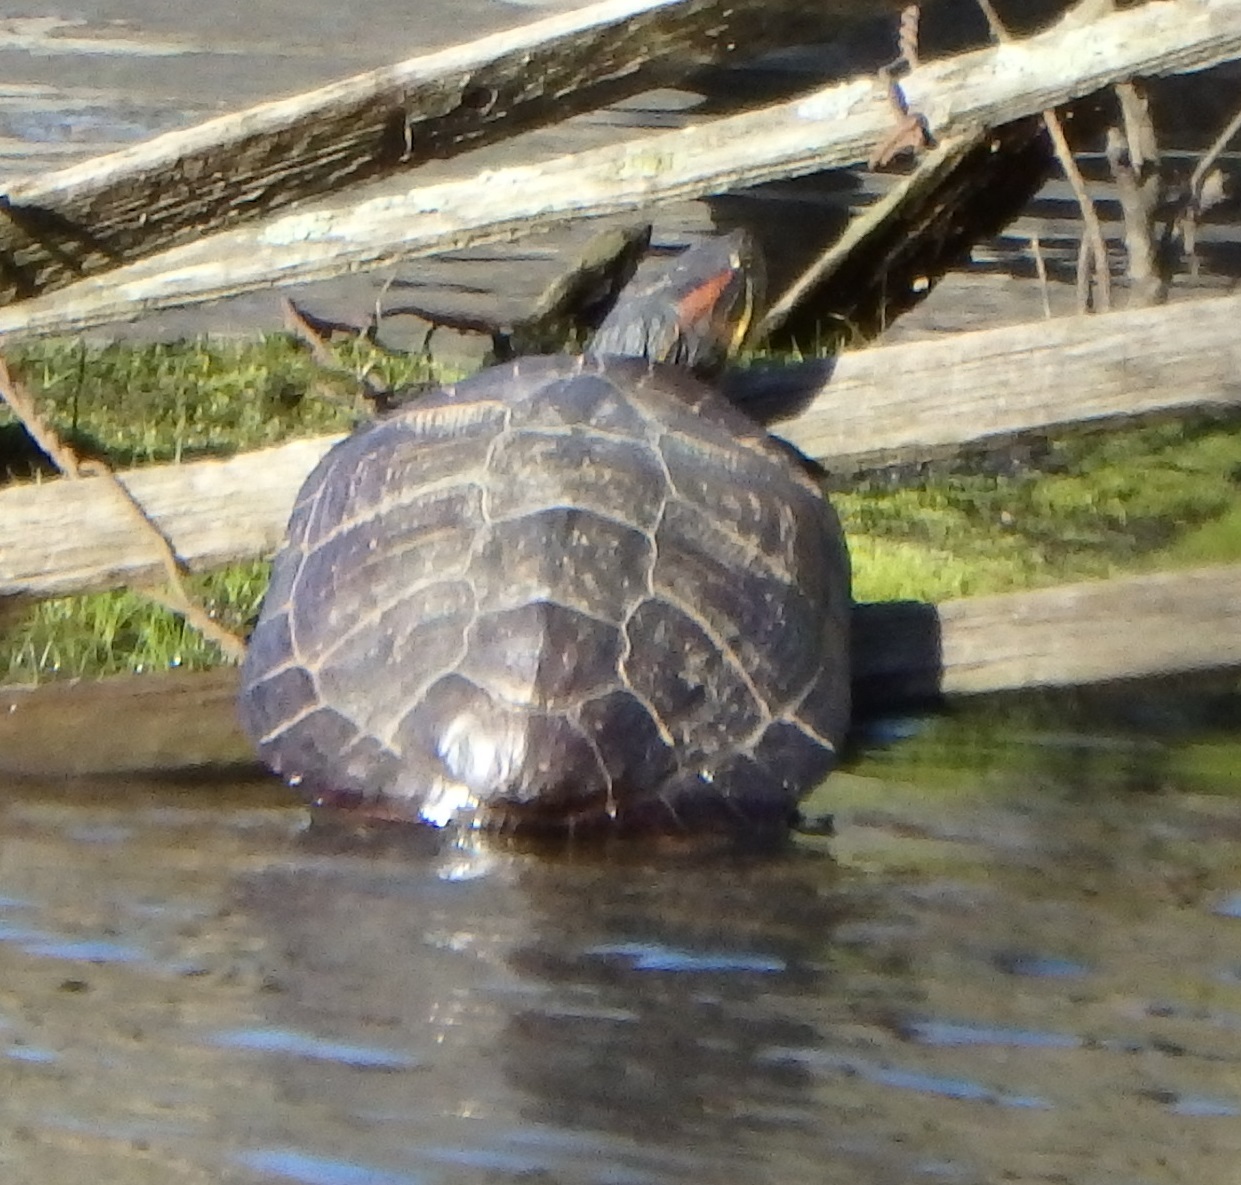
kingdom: Animalia
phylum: Chordata
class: Testudines
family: Emydidae
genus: Trachemys
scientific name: Trachemys scripta
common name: Slider
